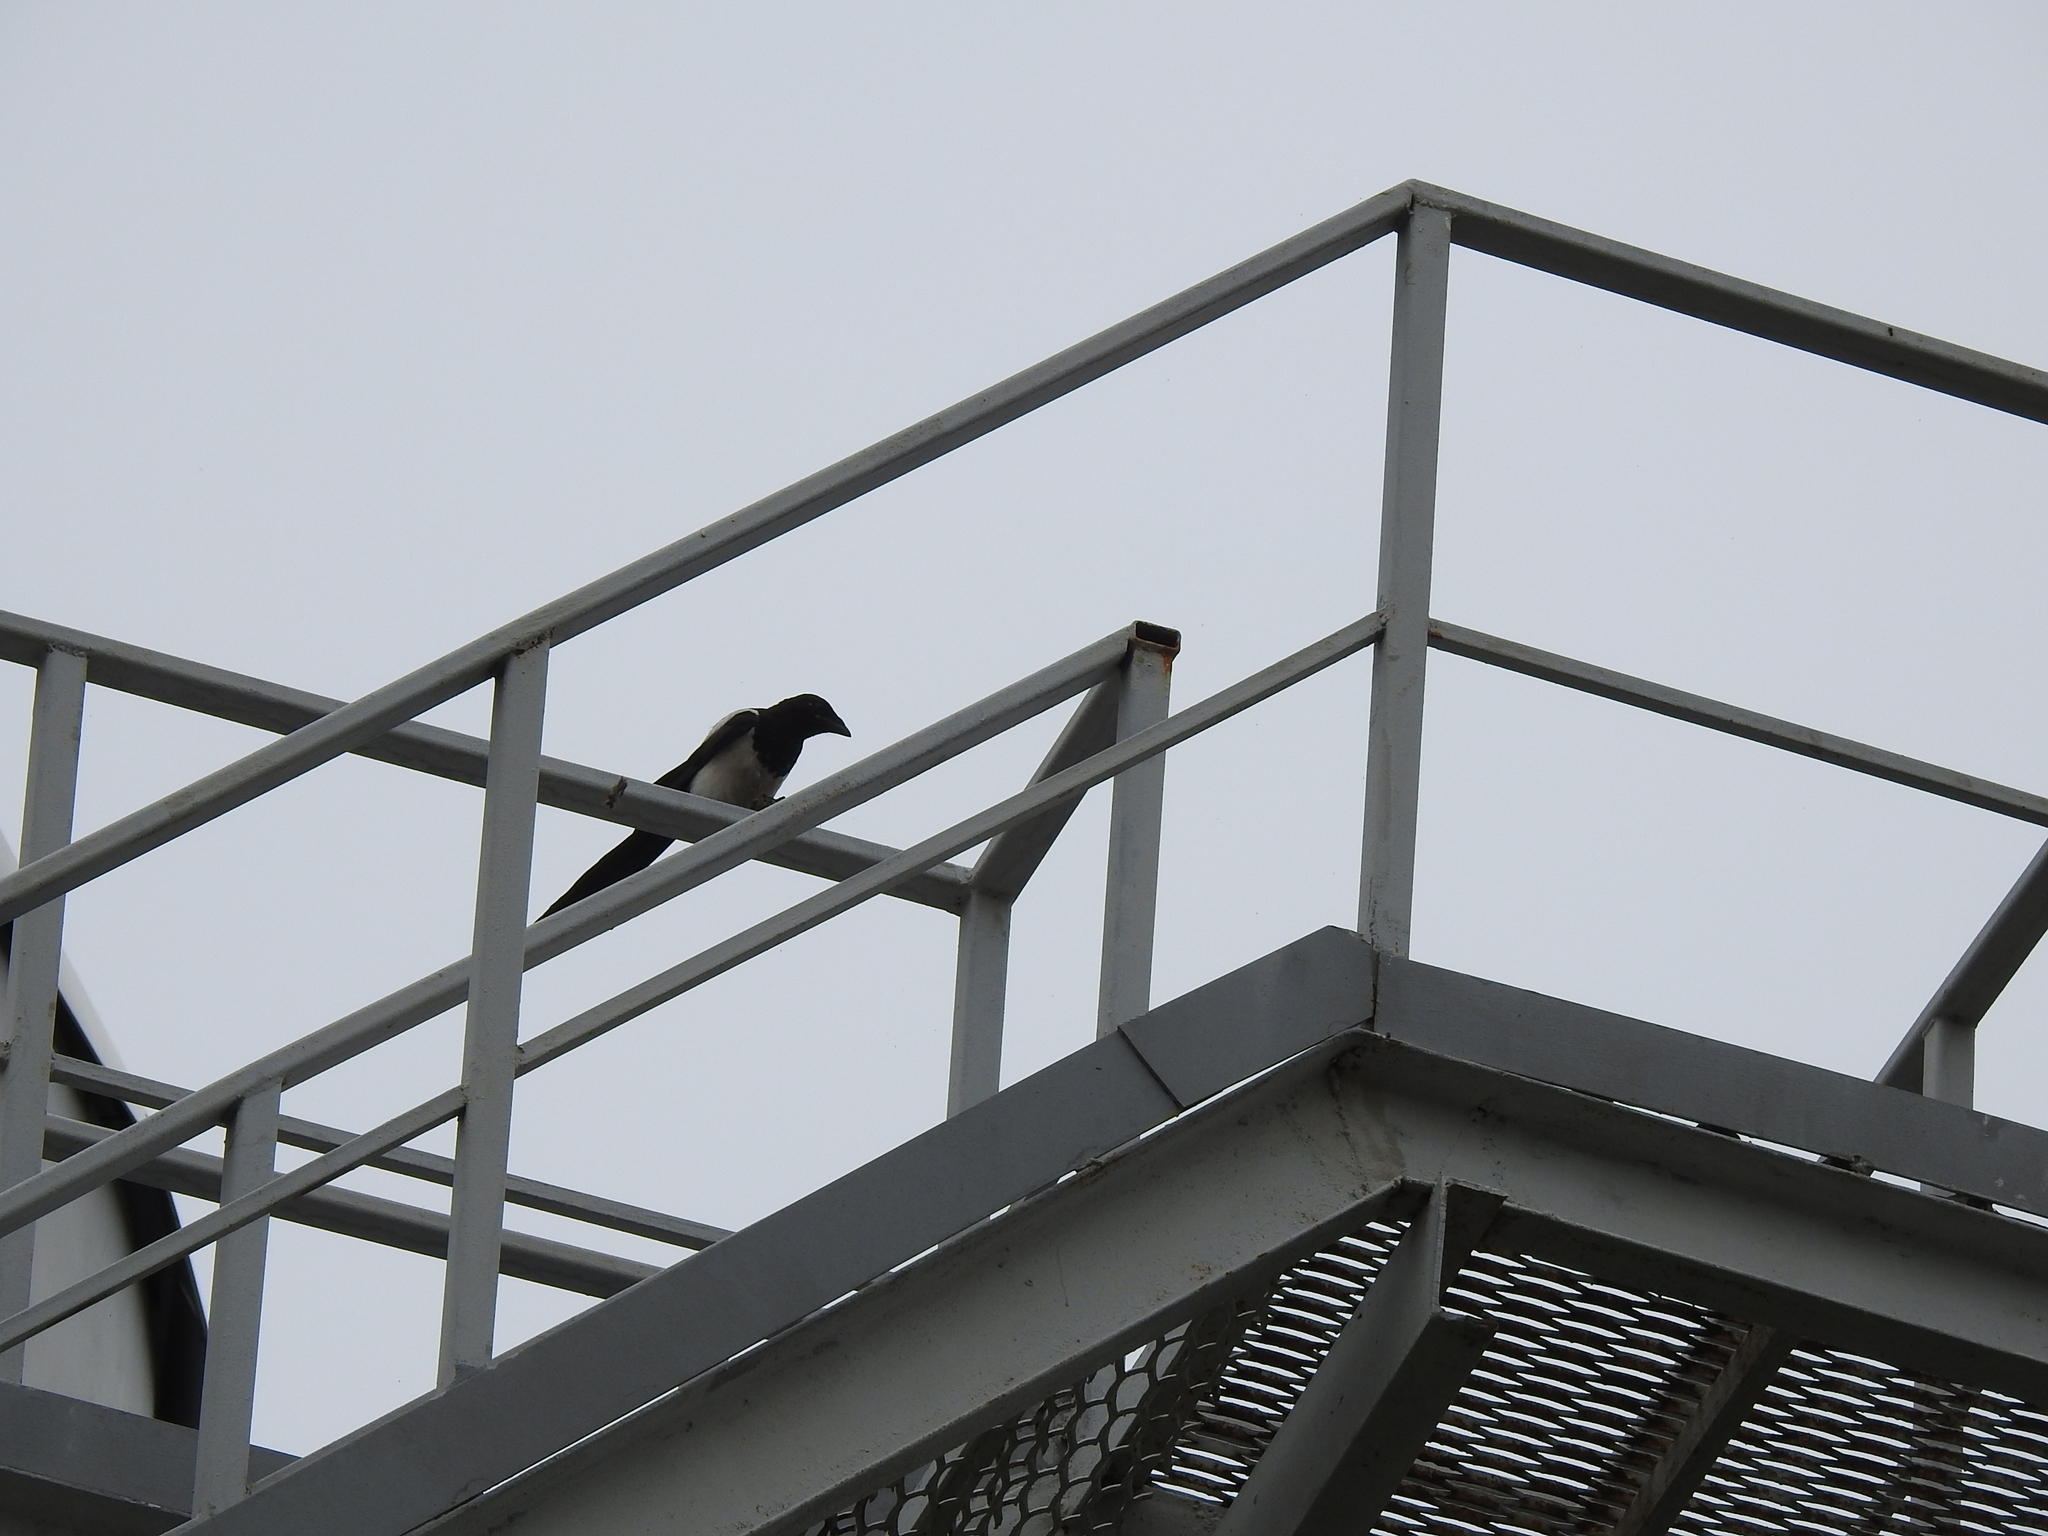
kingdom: Animalia
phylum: Chordata
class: Aves
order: Passeriformes
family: Corvidae
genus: Pica
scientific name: Pica pica
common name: Eurasian magpie
